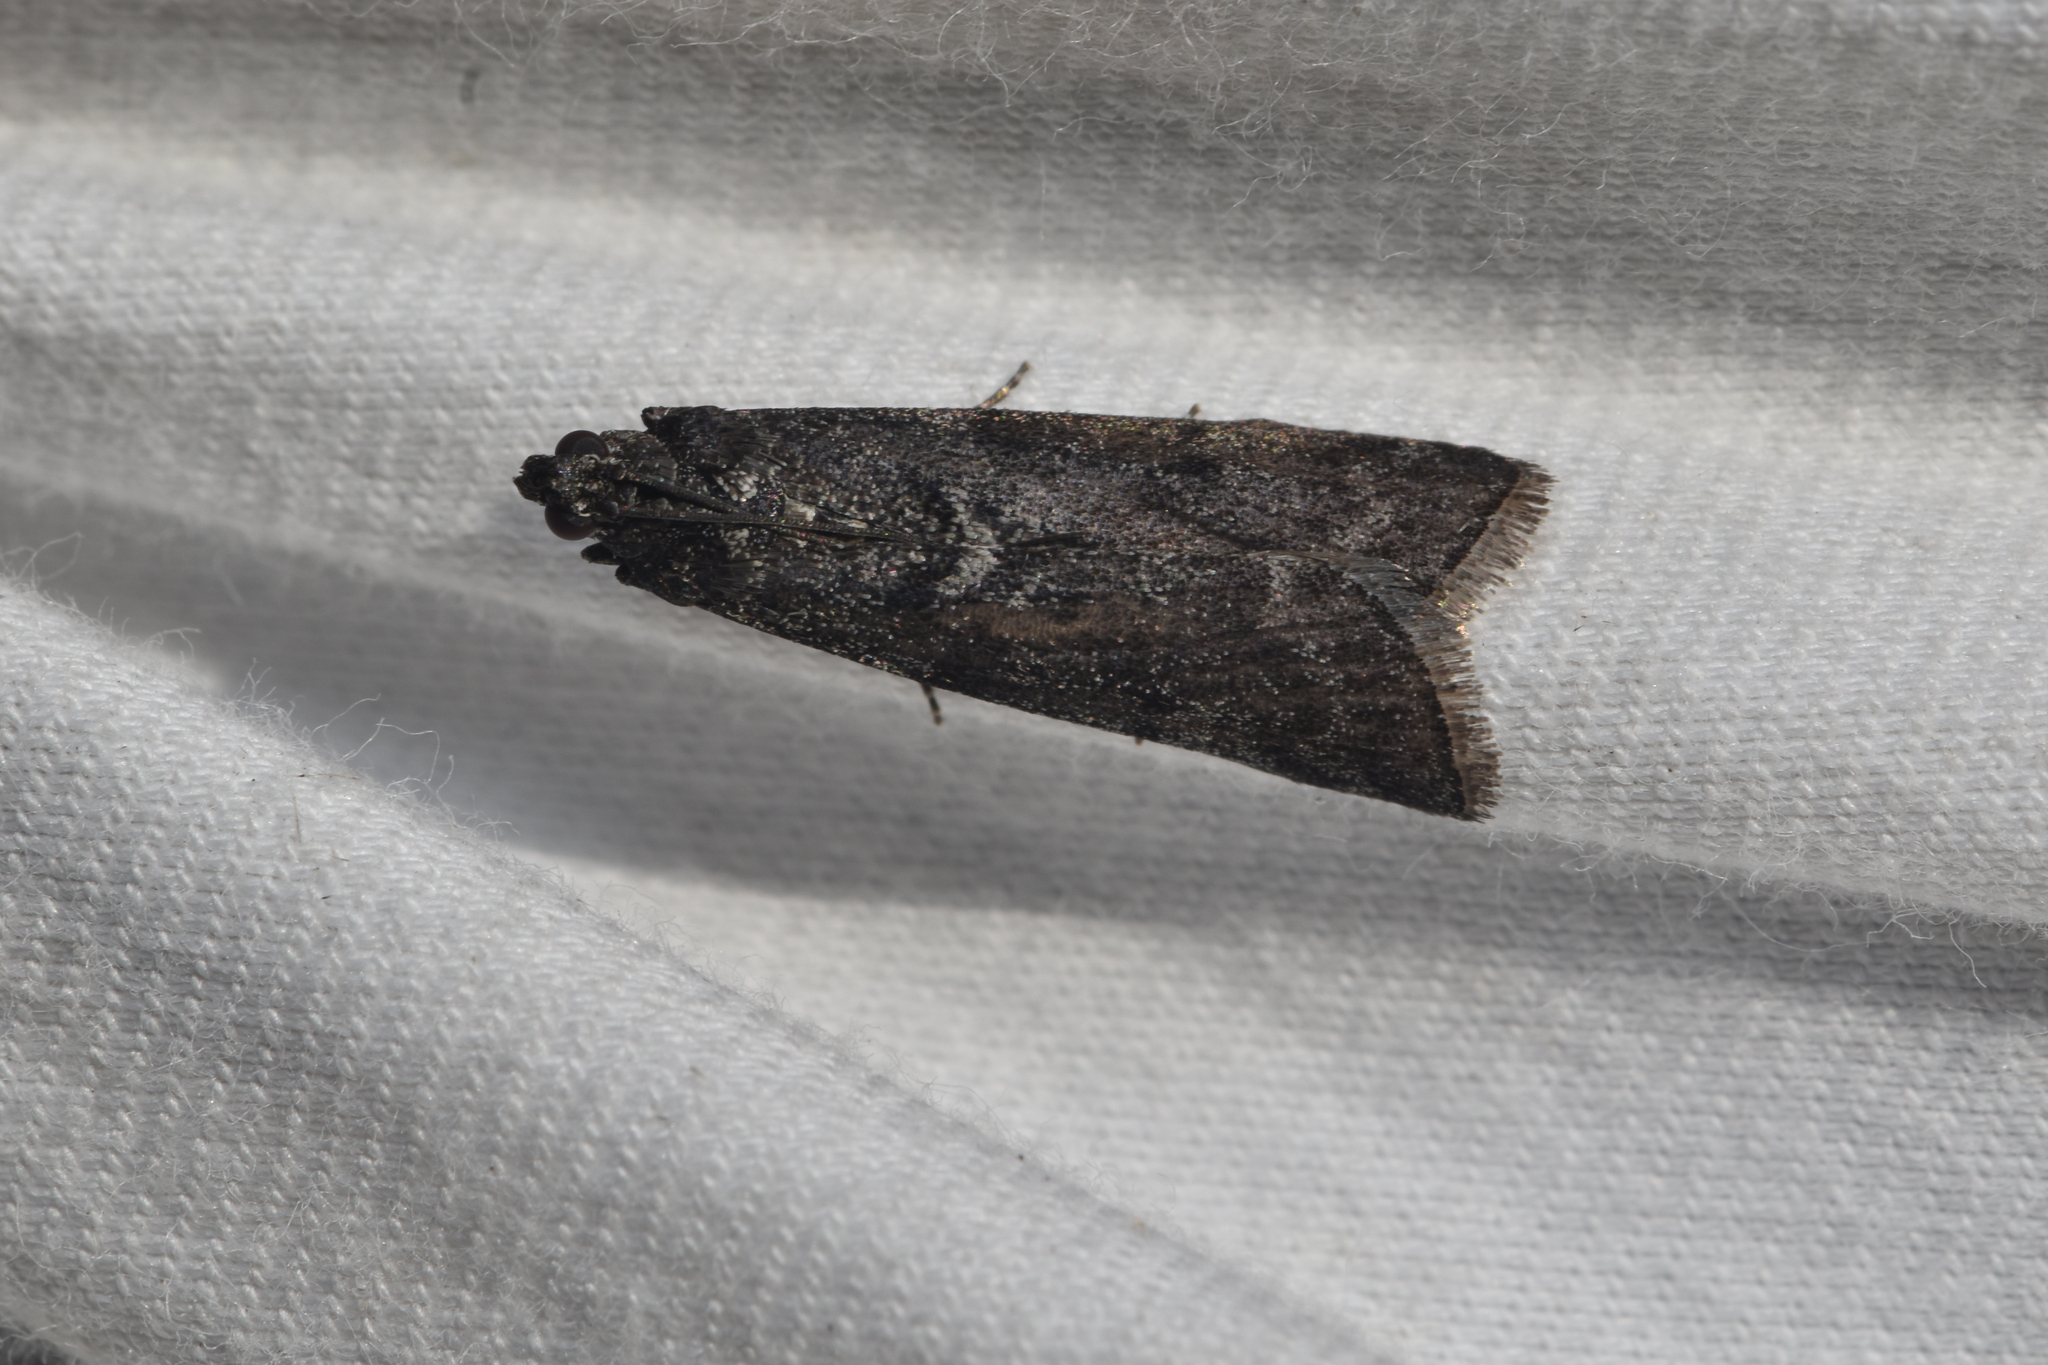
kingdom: Animalia
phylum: Arthropoda
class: Insecta
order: Lepidoptera
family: Pyralidae
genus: Acrobasis
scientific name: Acrobasis tricolorella
